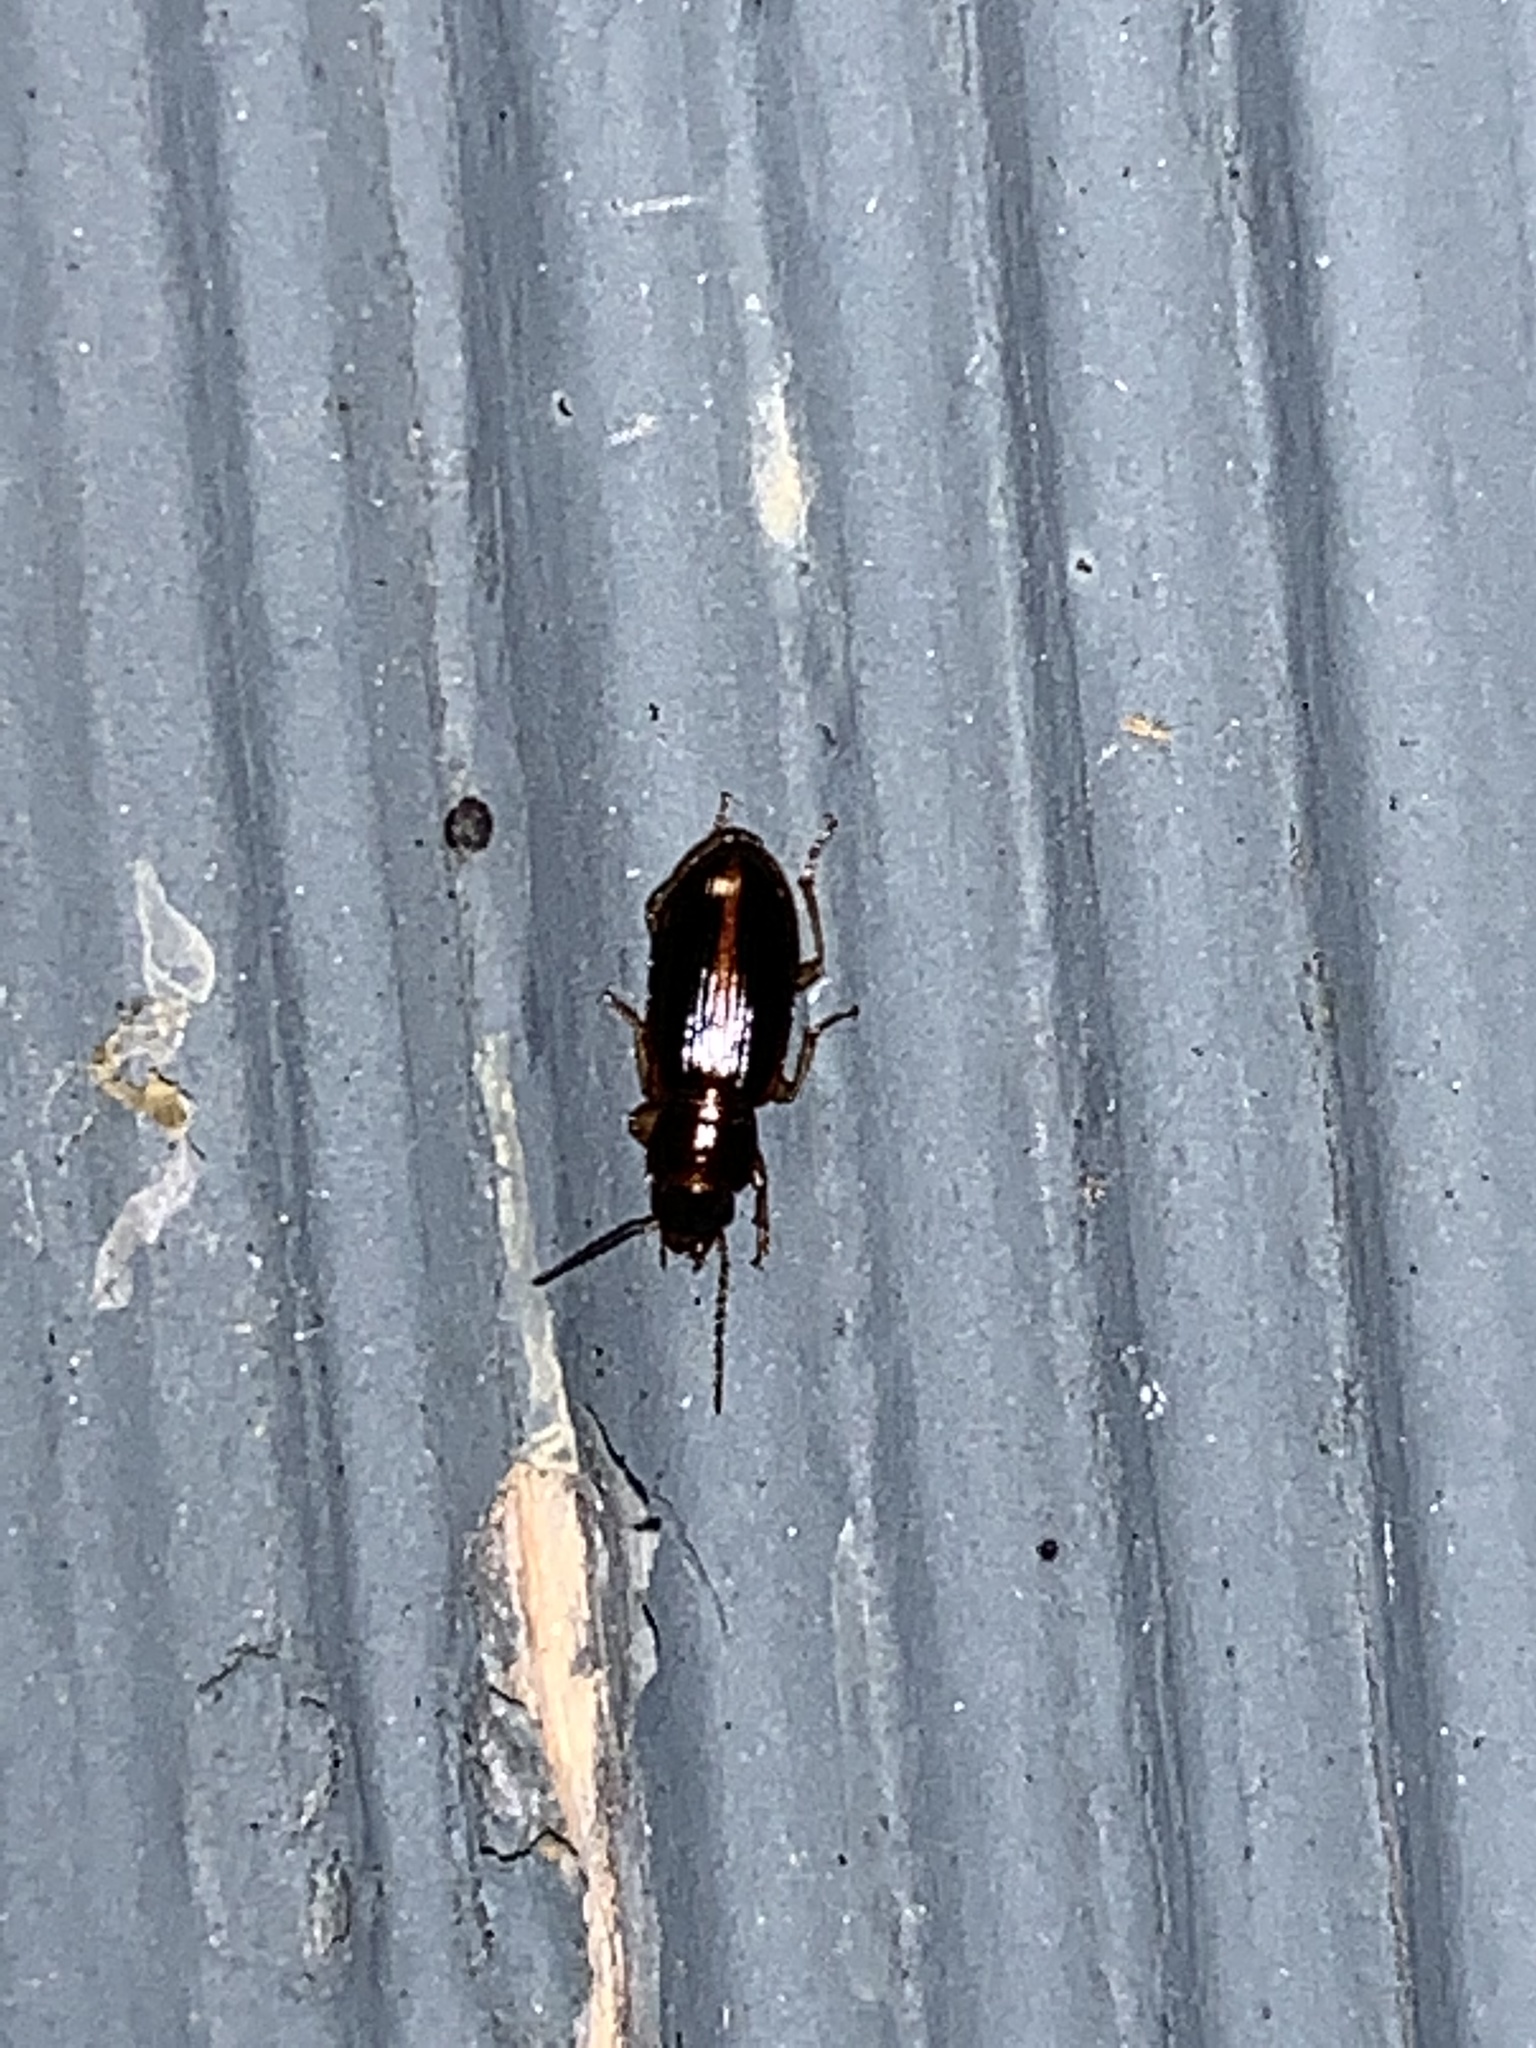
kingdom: Animalia
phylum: Arthropoda
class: Insecta
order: Coleoptera
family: Carabidae
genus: Stenolophus
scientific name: Stenolophus
